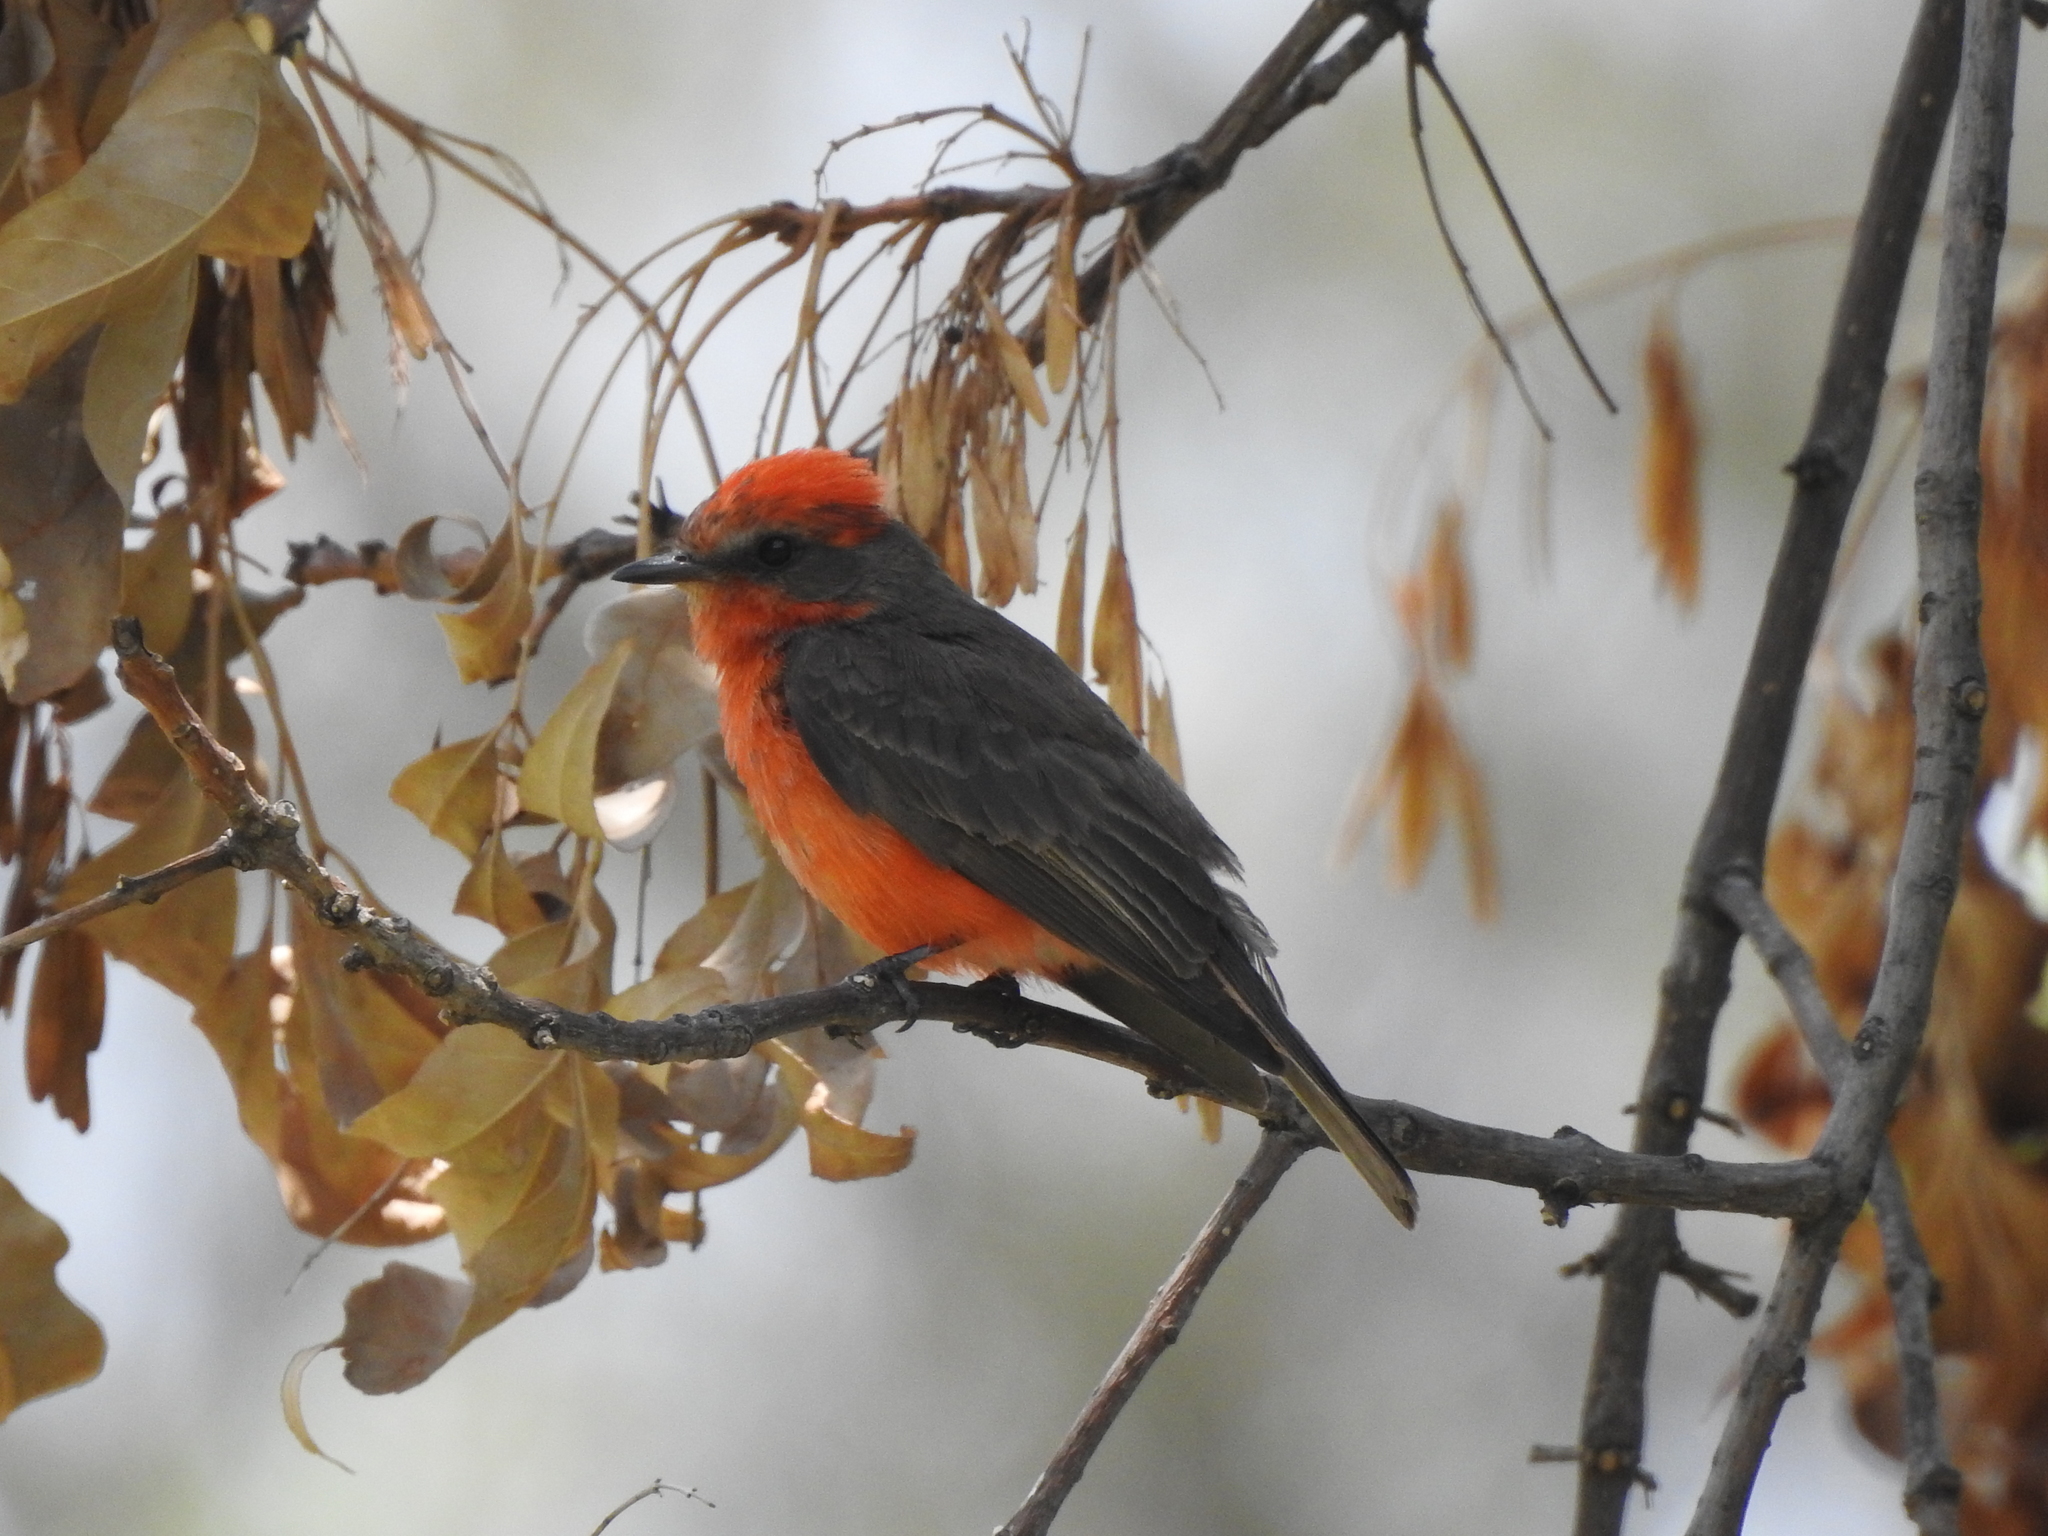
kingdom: Animalia
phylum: Chordata
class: Aves
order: Passeriformes
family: Tyrannidae
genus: Pyrocephalus
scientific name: Pyrocephalus rubinus
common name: Vermilion flycatcher
